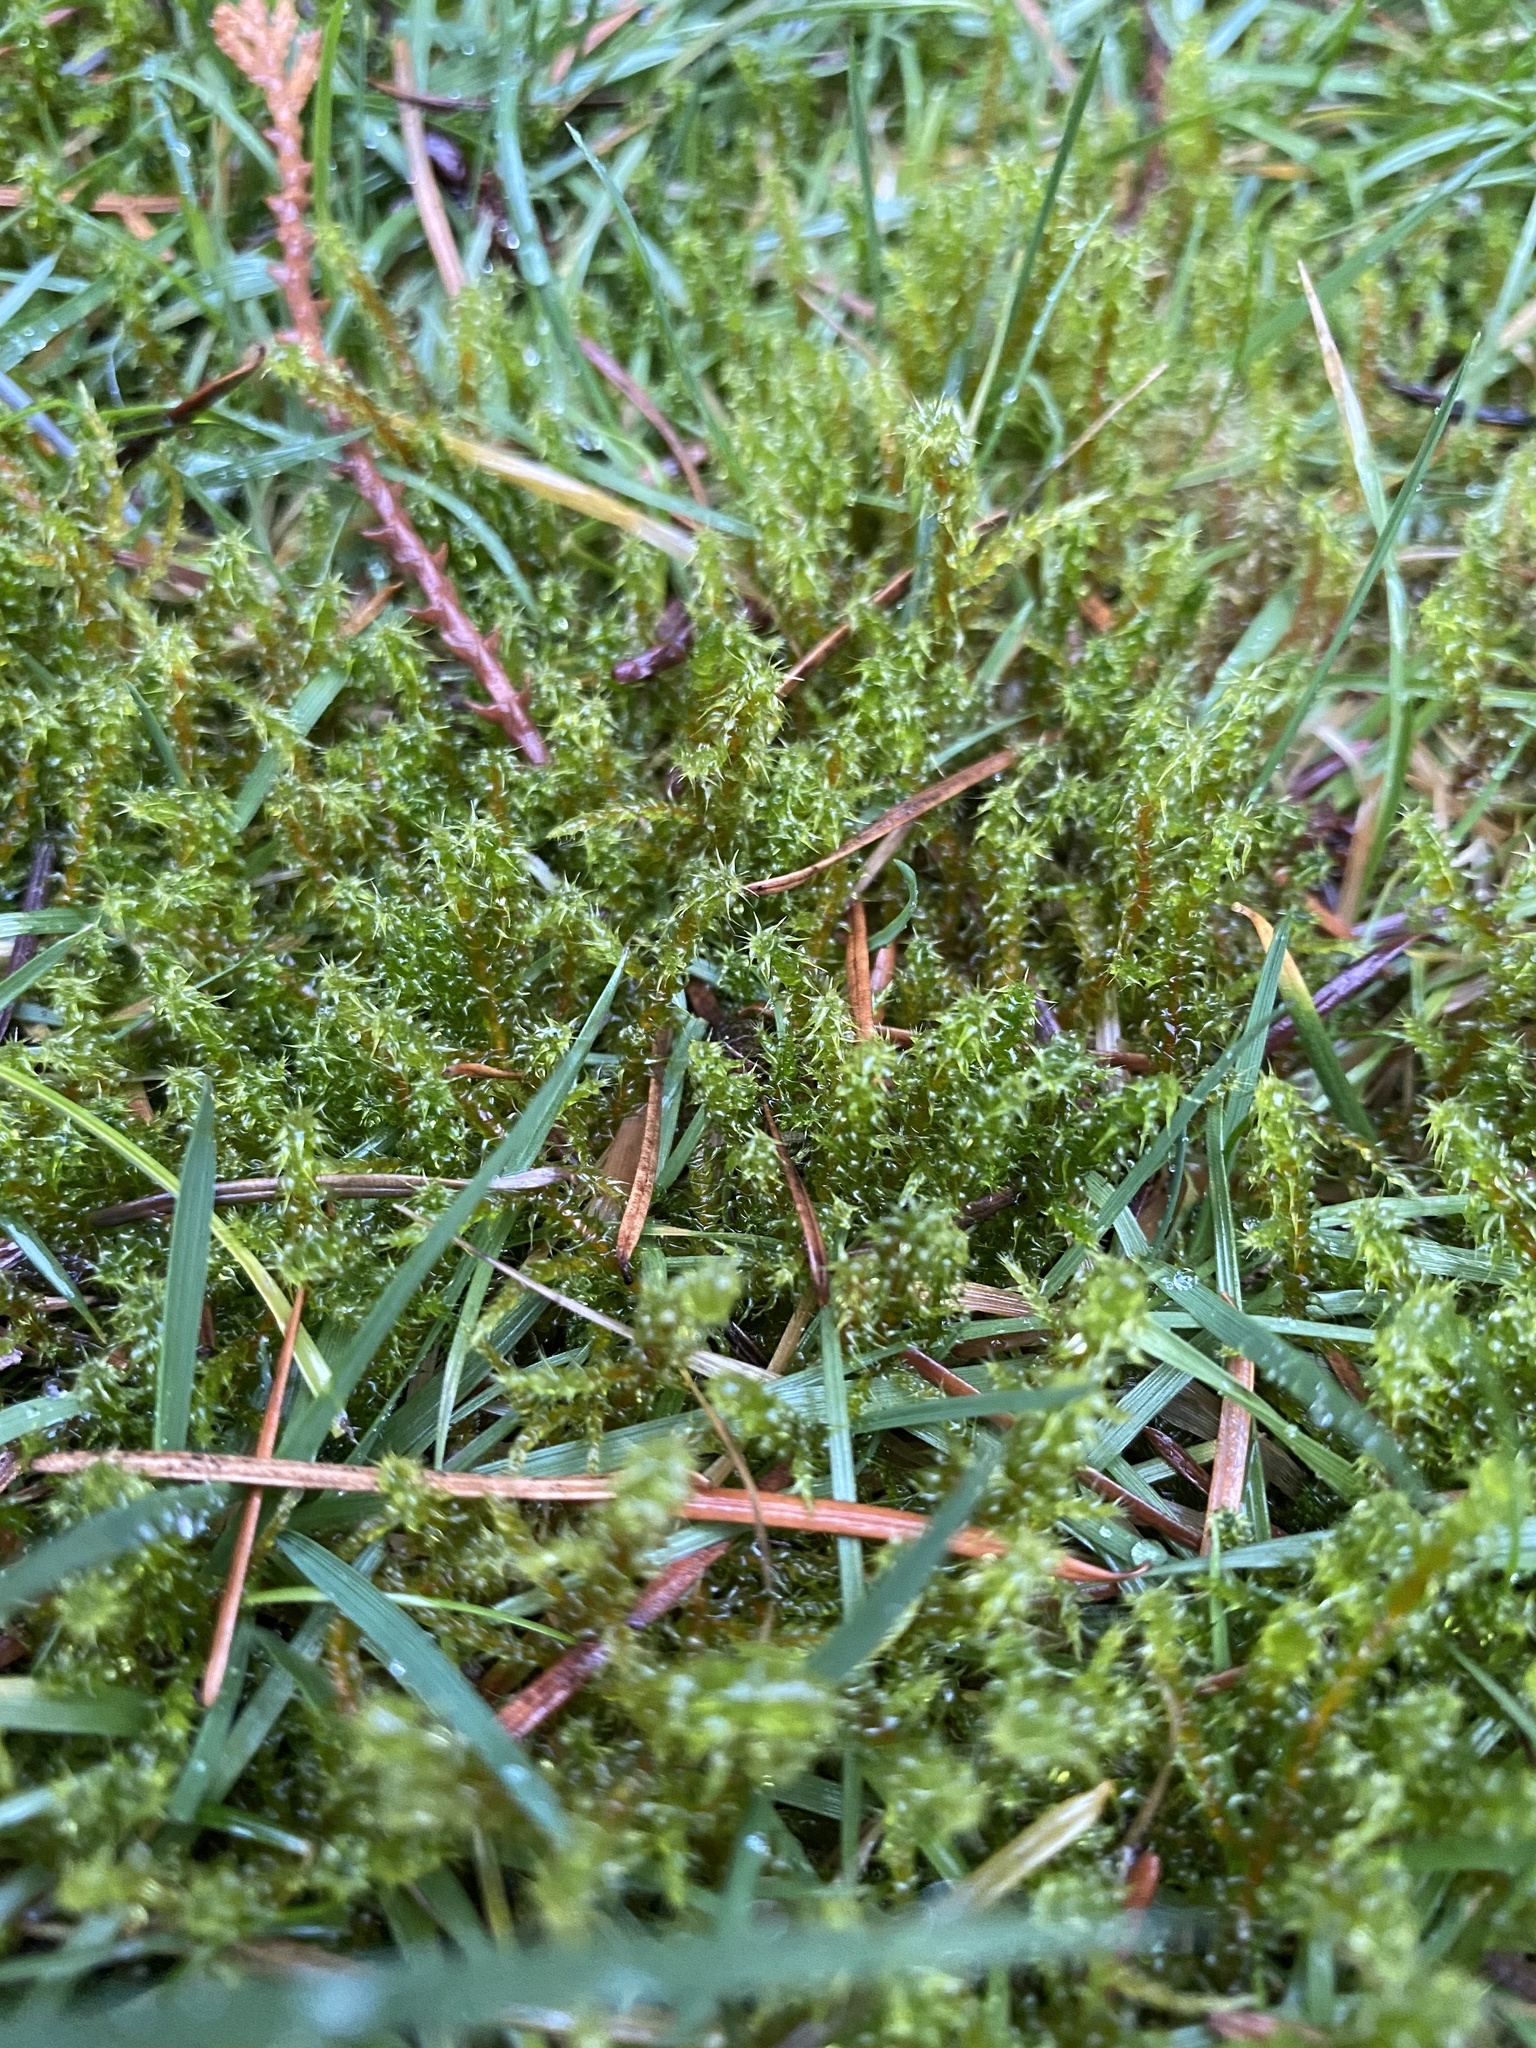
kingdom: Plantae
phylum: Bryophyta
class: Bryopsida
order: Hypnales
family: Hylocomiaceae
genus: Rhytidiadelphus
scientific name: Rhytidiadelphus squarrosus
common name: Springy turf-moss
